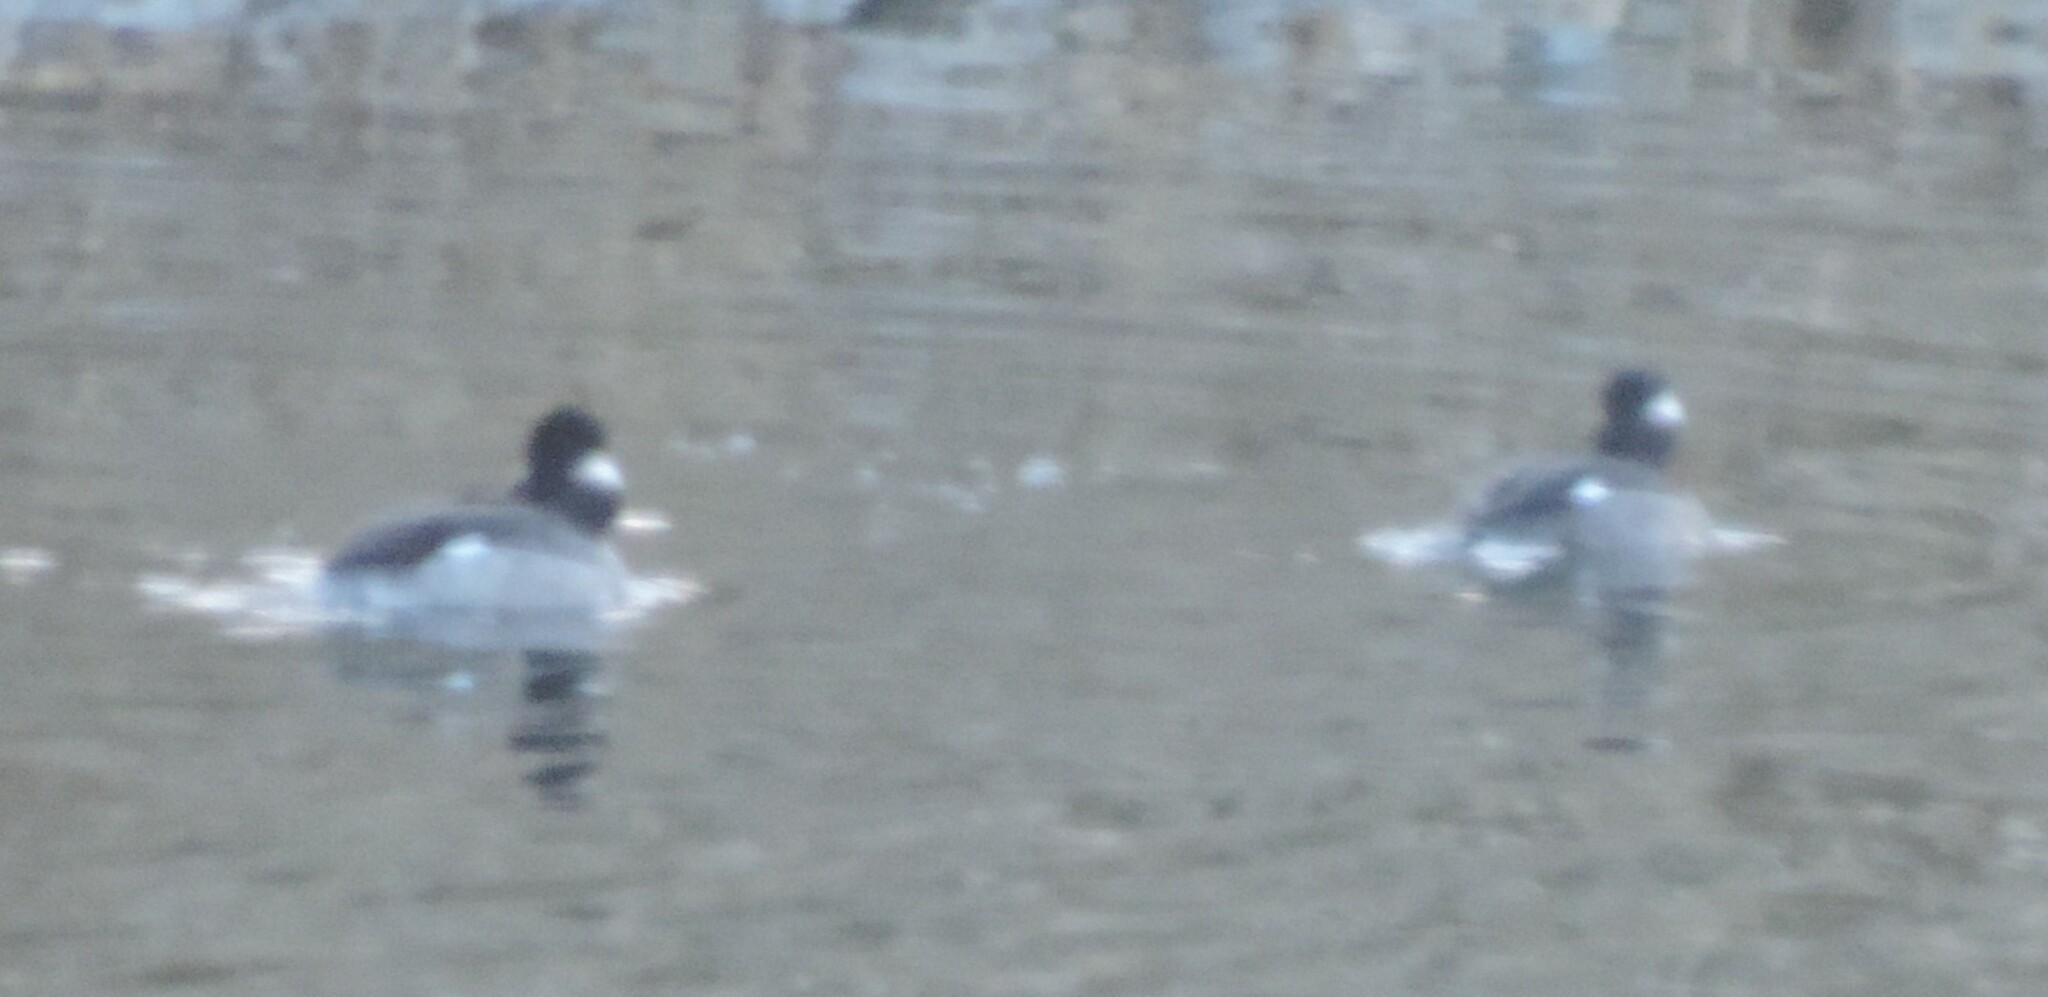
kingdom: Animalia
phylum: Chordata
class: Aves
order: Anseriformes
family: Anatidae
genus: Bucephala
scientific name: Bucephala albeola
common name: Bufflehead
